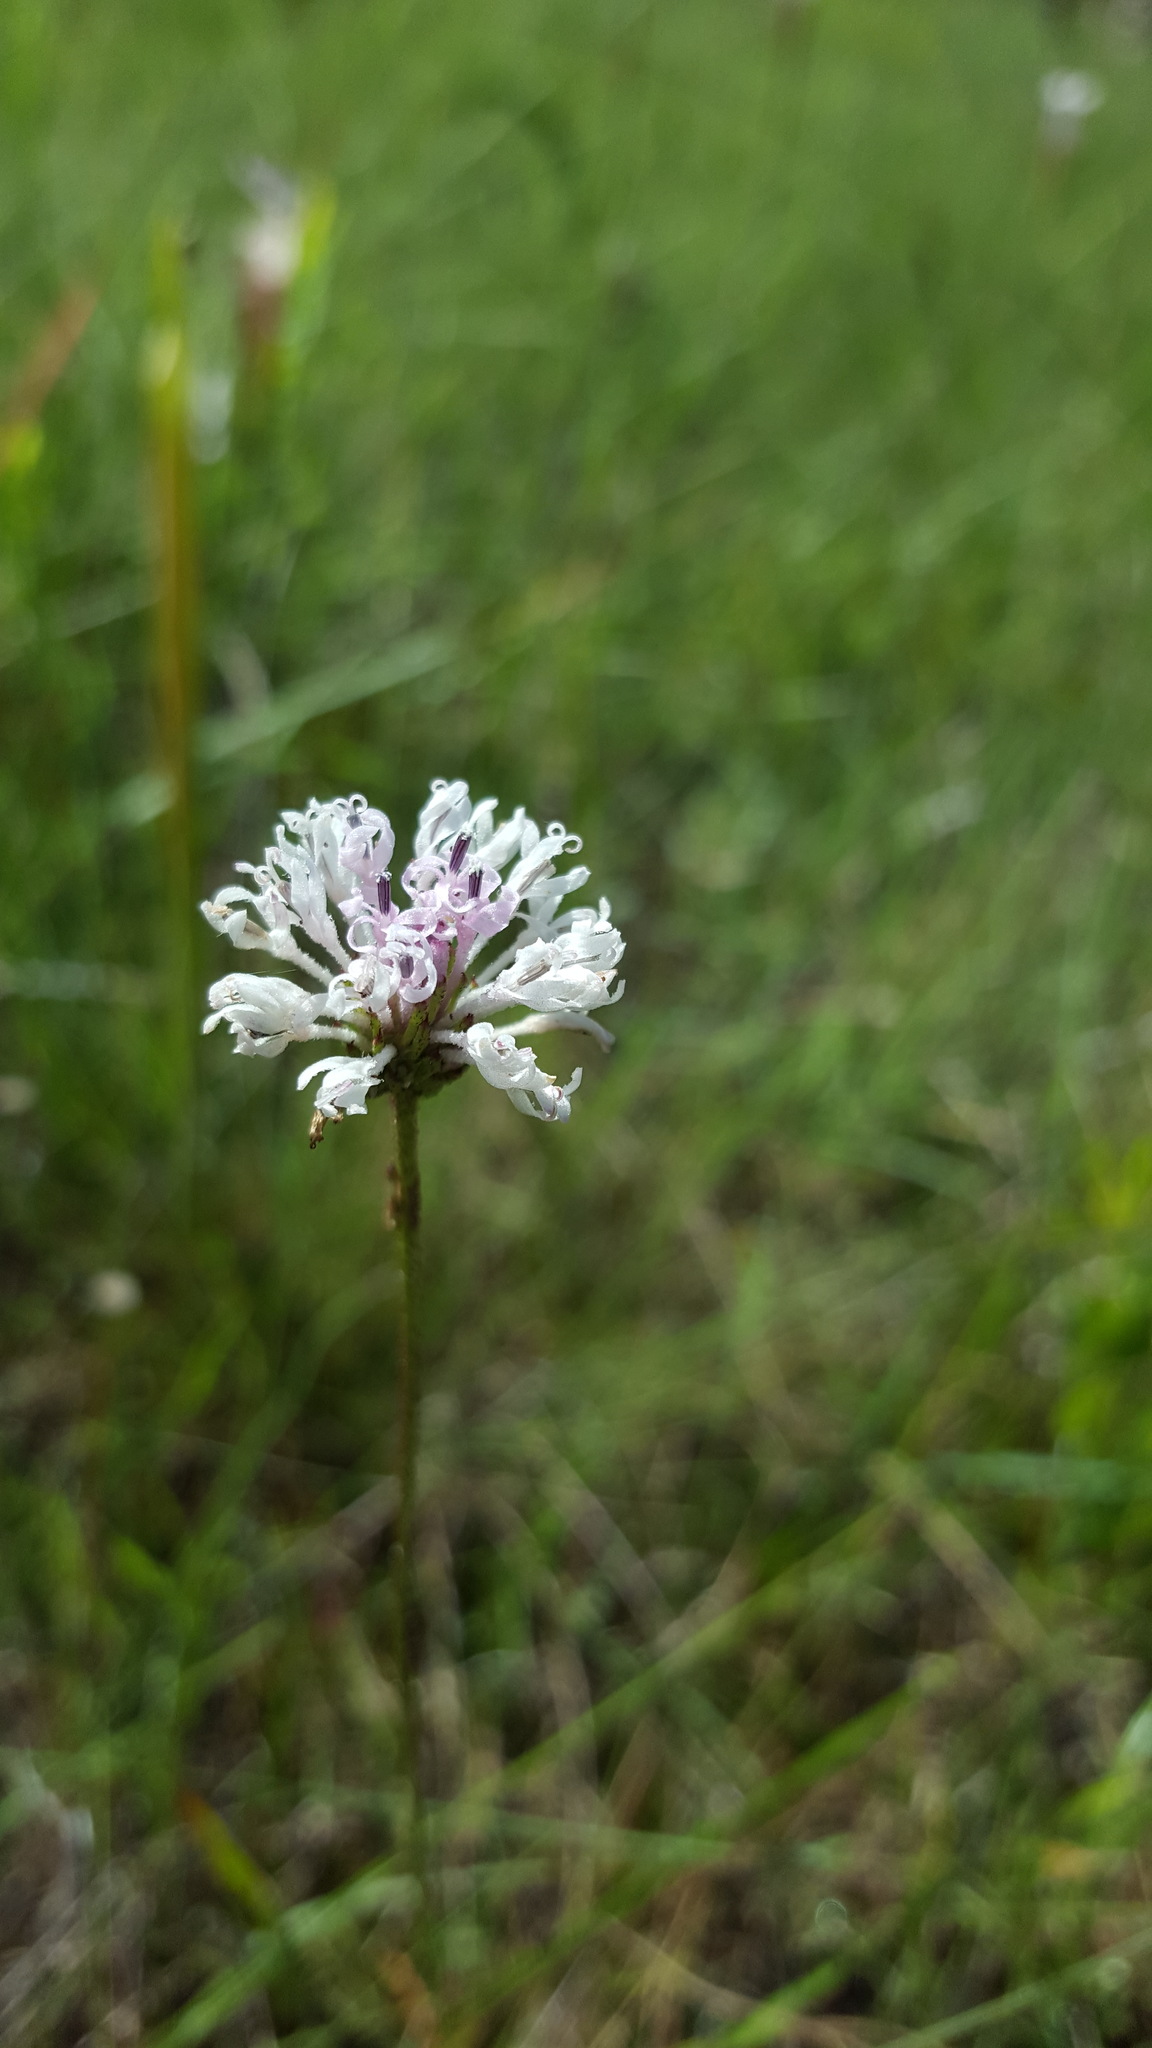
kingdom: Plantae
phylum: Tracheophyta
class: Magnoliopsida
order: Asterales
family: Asteraceae
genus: Marshallia
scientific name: Marshallia graminifolia
